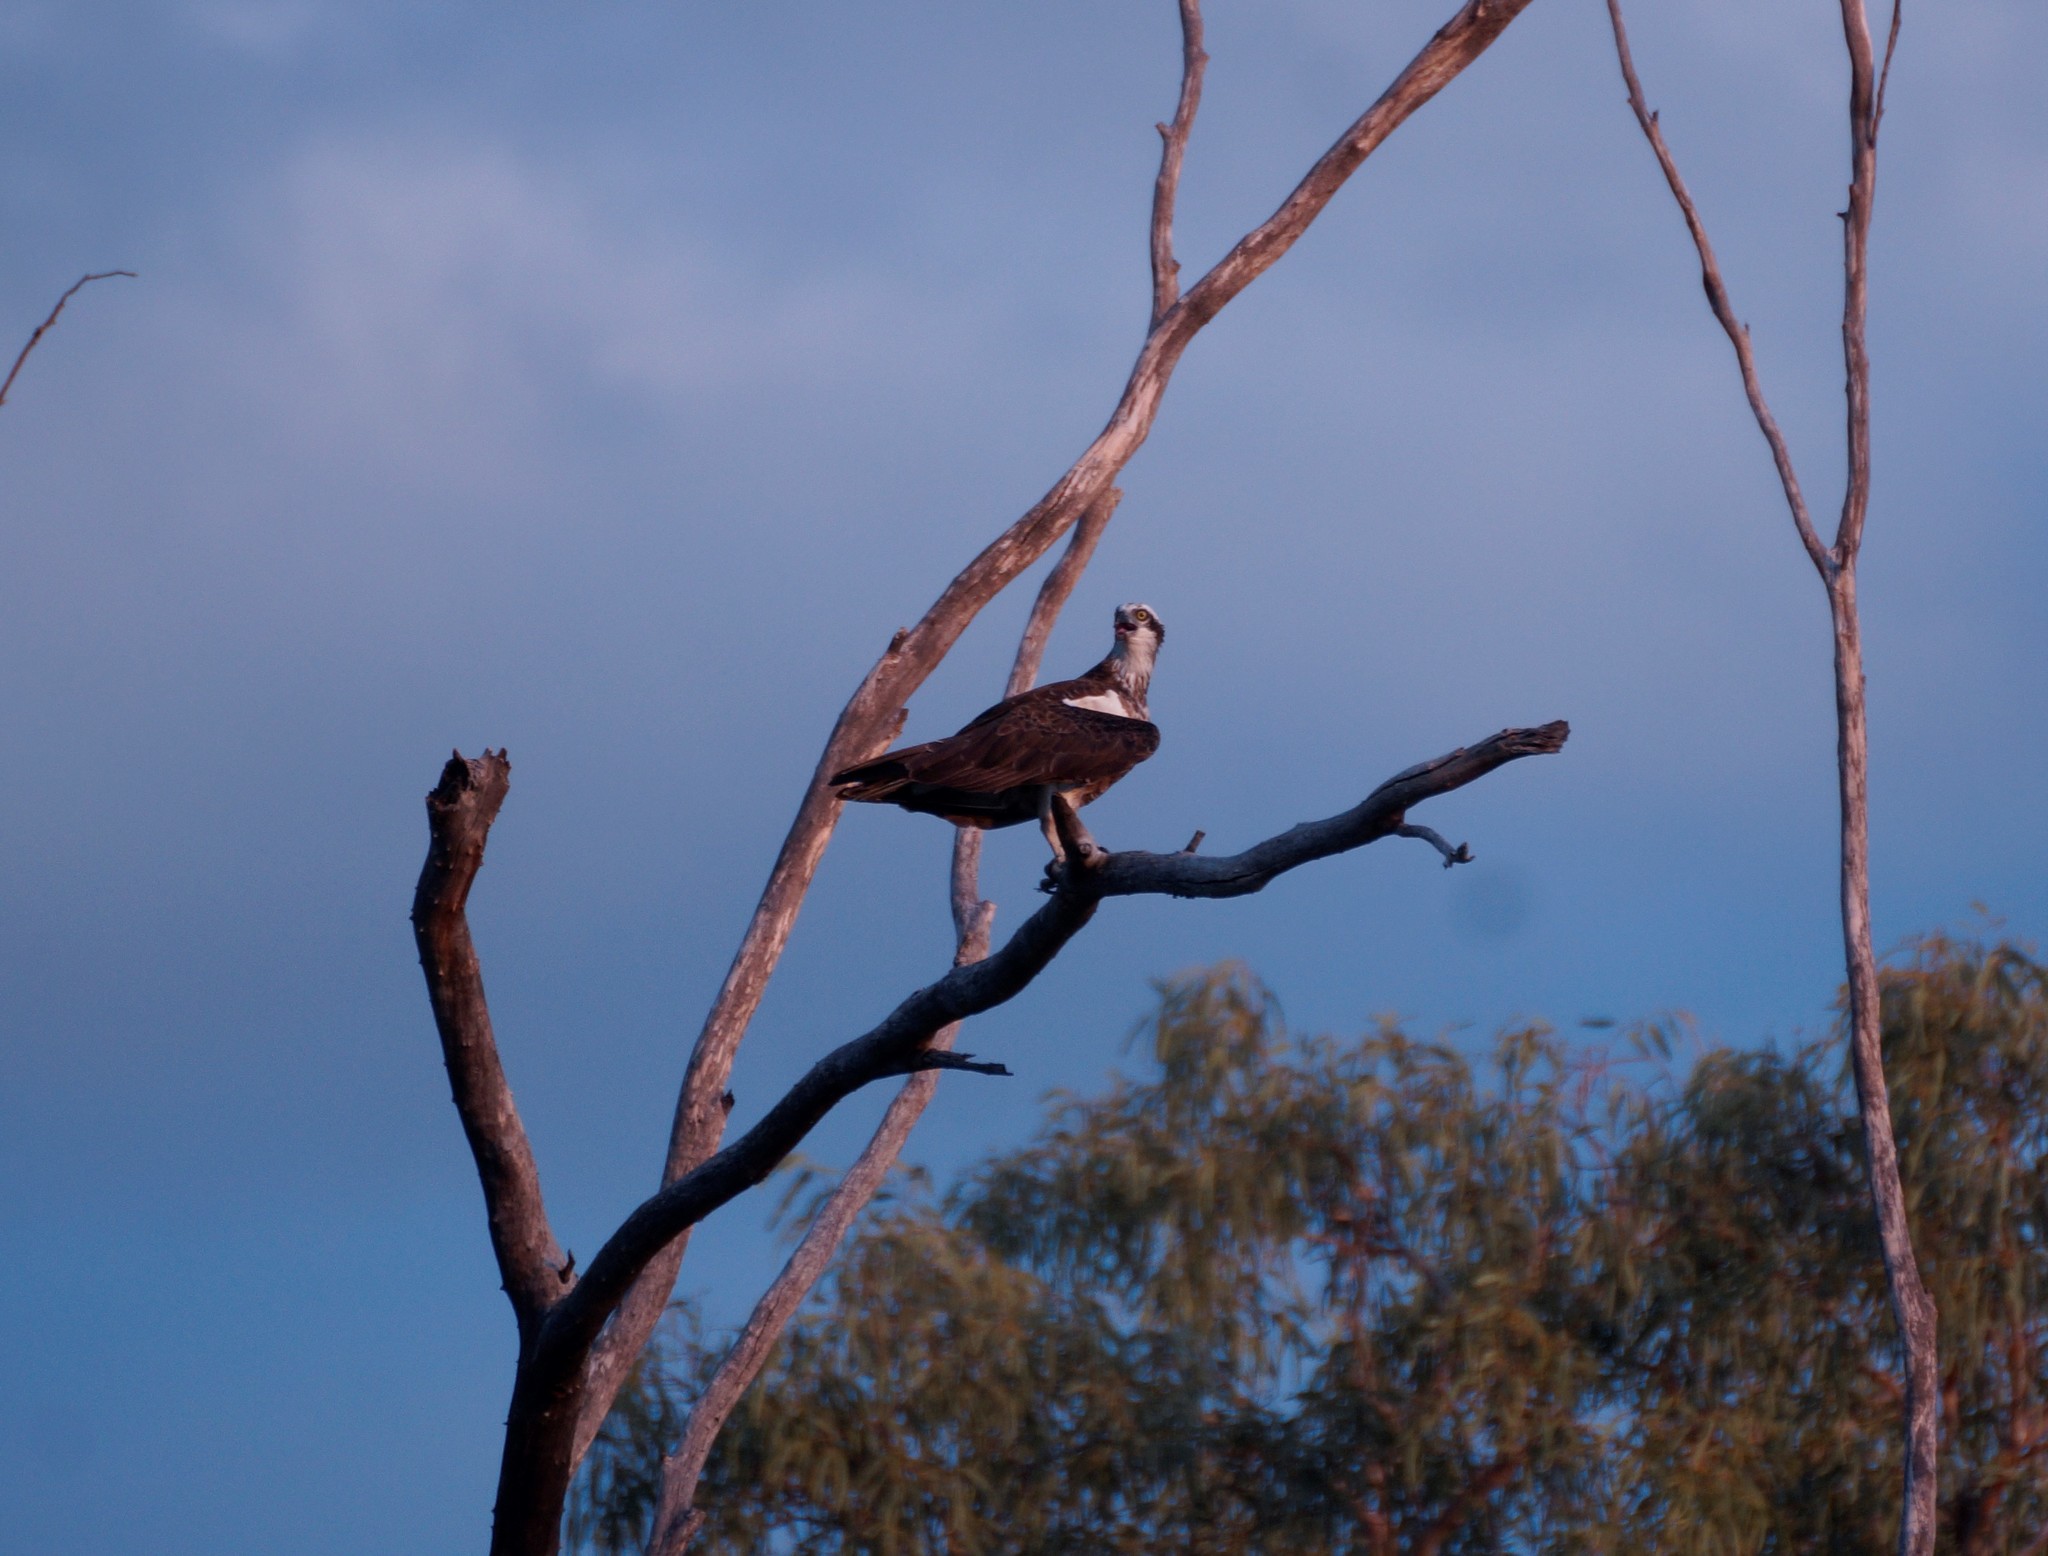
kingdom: Animalia
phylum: Chordata
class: Aves
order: Accipitriformes
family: Pandionidae
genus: Pandion
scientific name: Pandion cristatus
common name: Eastern osprey
